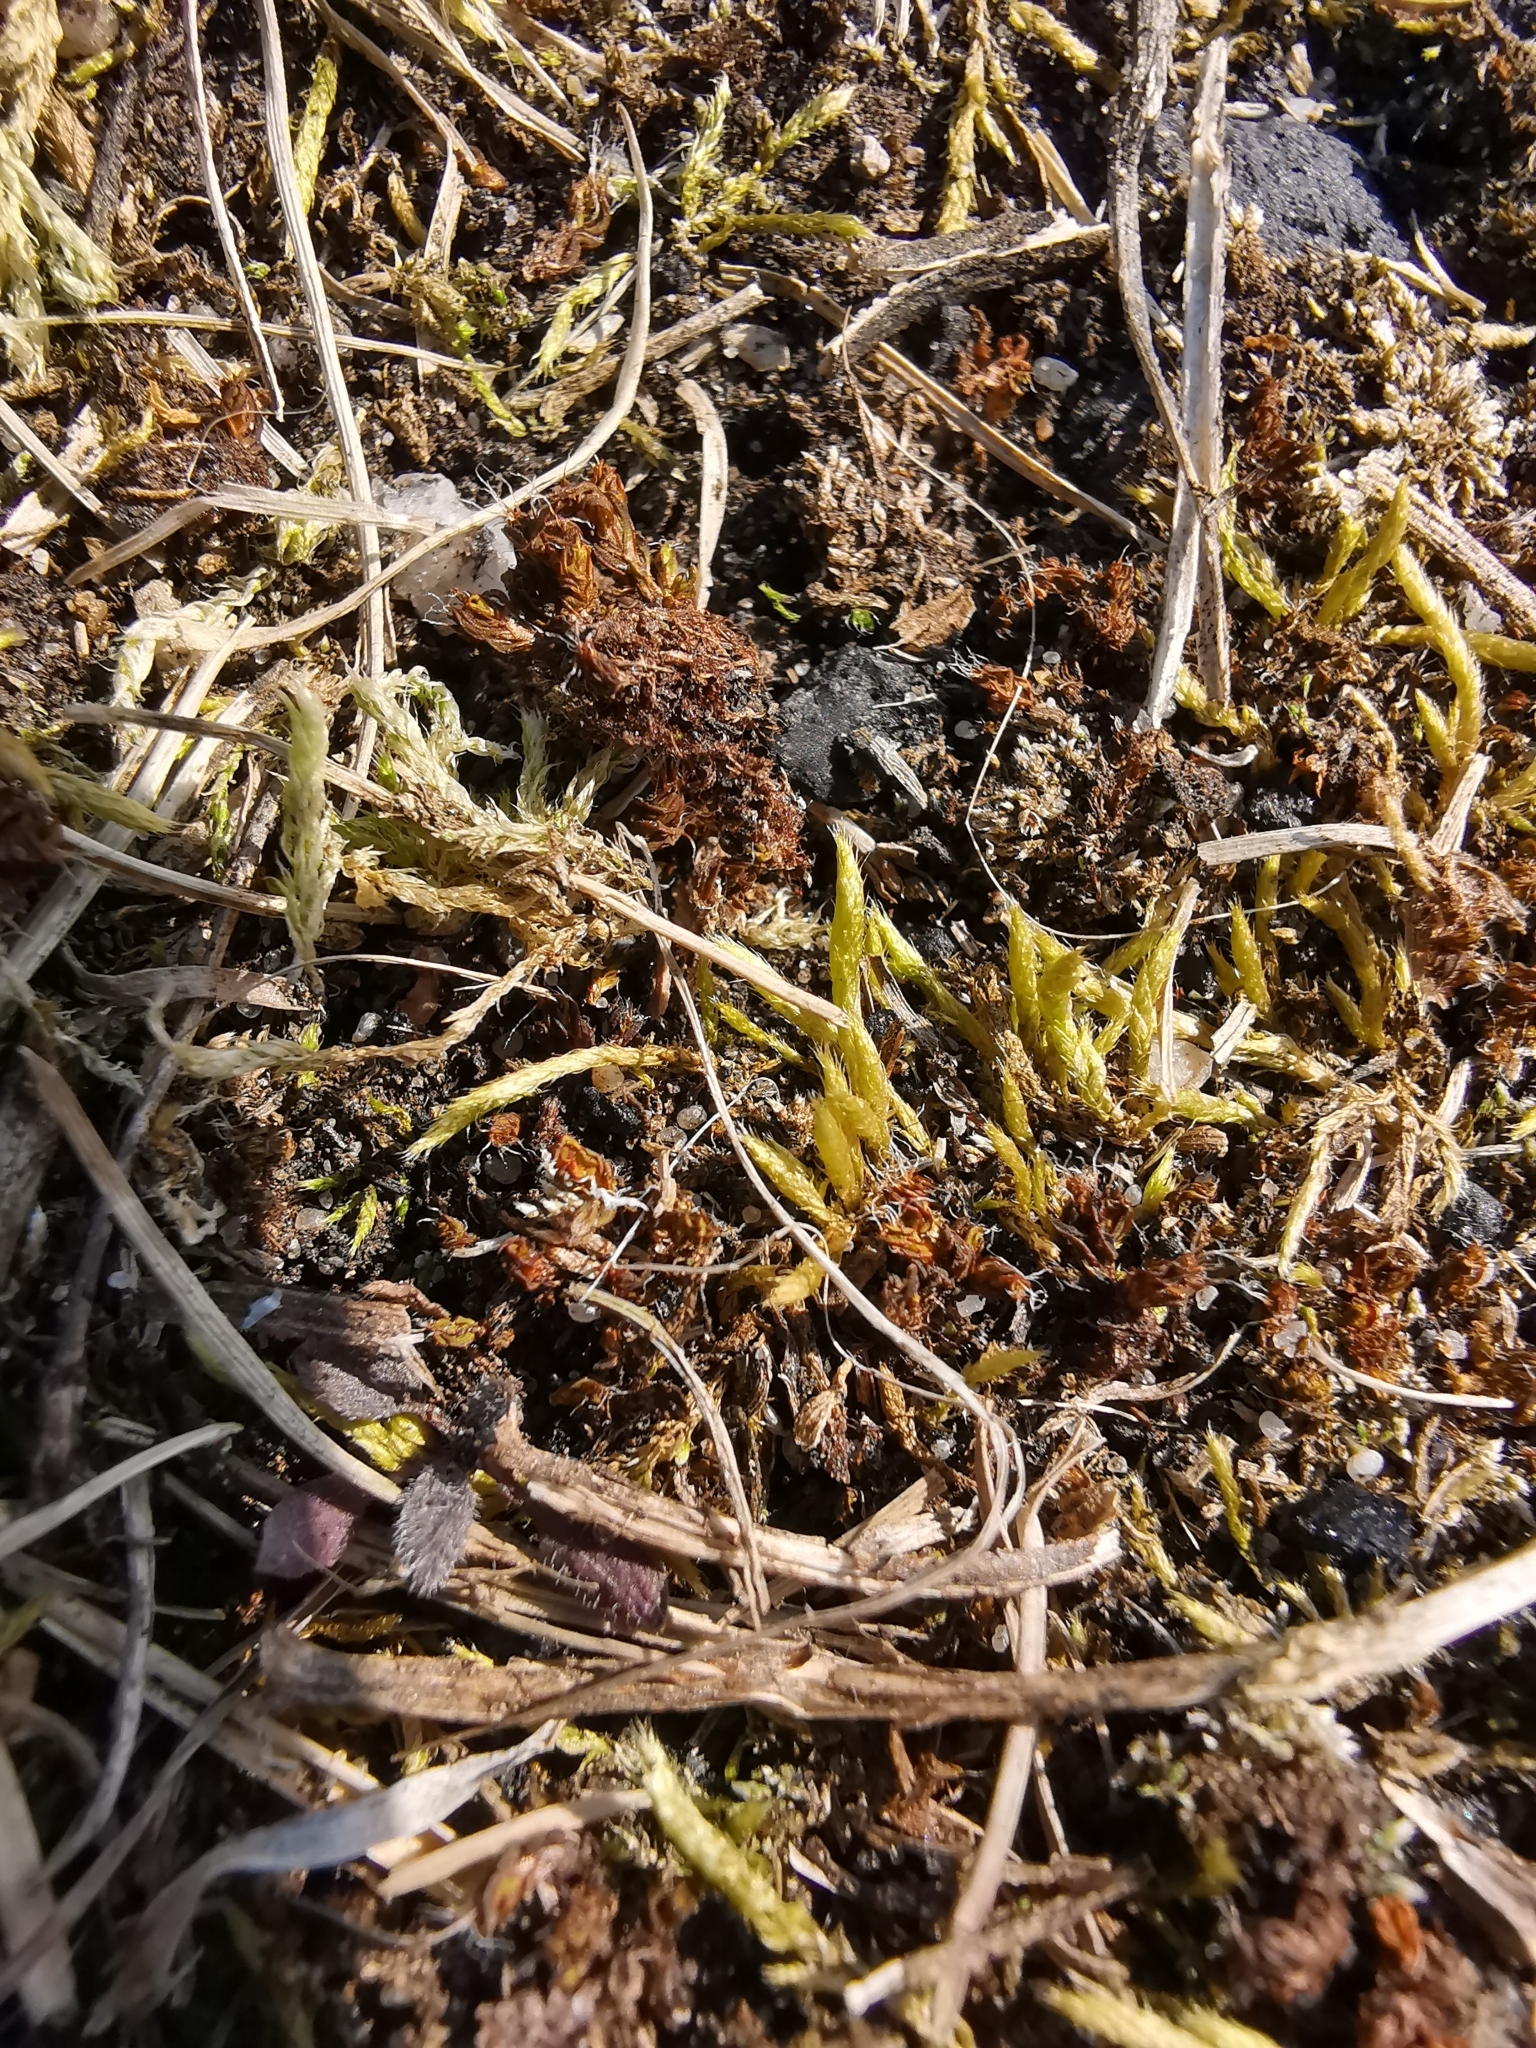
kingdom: Plantae
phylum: Bryophyta
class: Bryopsida
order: Hypnales
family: Brachytheciaceae
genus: Brachythecium
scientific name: Brachythecium albicans
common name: Whitish ragged moss
